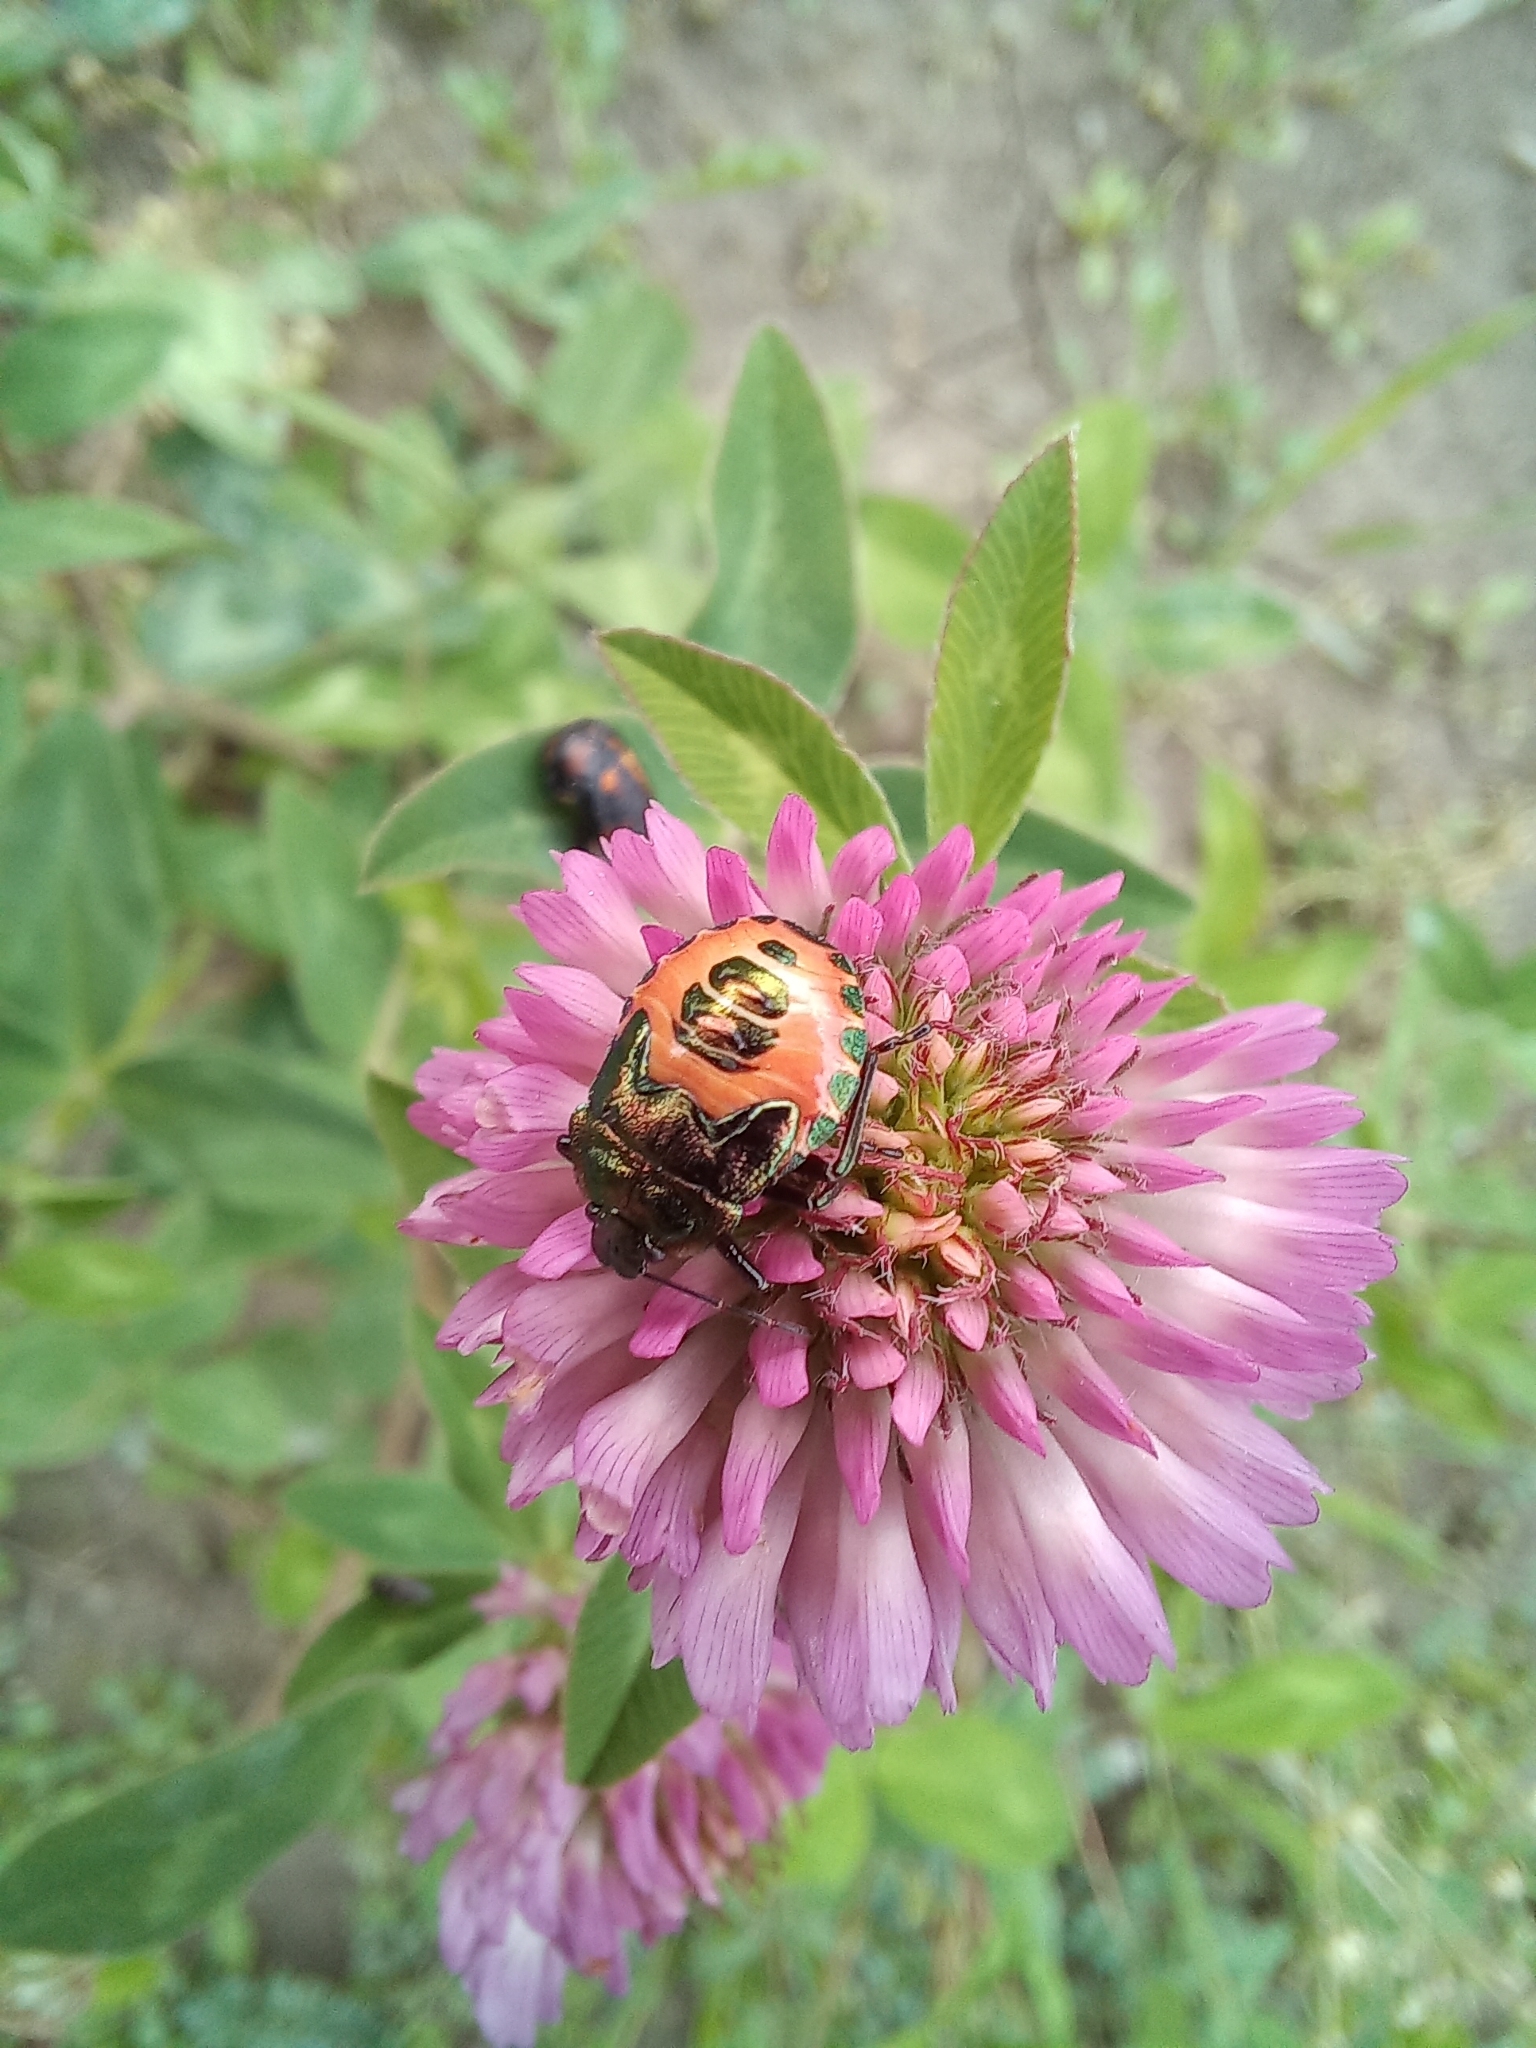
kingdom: Animalia
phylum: Arthropoda
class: Insecta
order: Hemiptera
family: Pentatomidae
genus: Troilus
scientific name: Troilus luridus
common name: Bronze shieldbug
